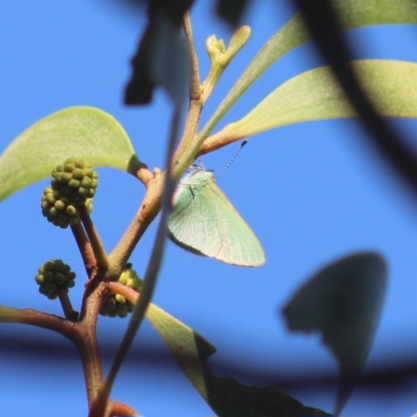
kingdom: Animalia
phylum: Arthropoda
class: Insecta
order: Lepidoptera
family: Lycaenidae
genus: Udara
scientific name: Udara blackburni
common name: Blackburn's blue
